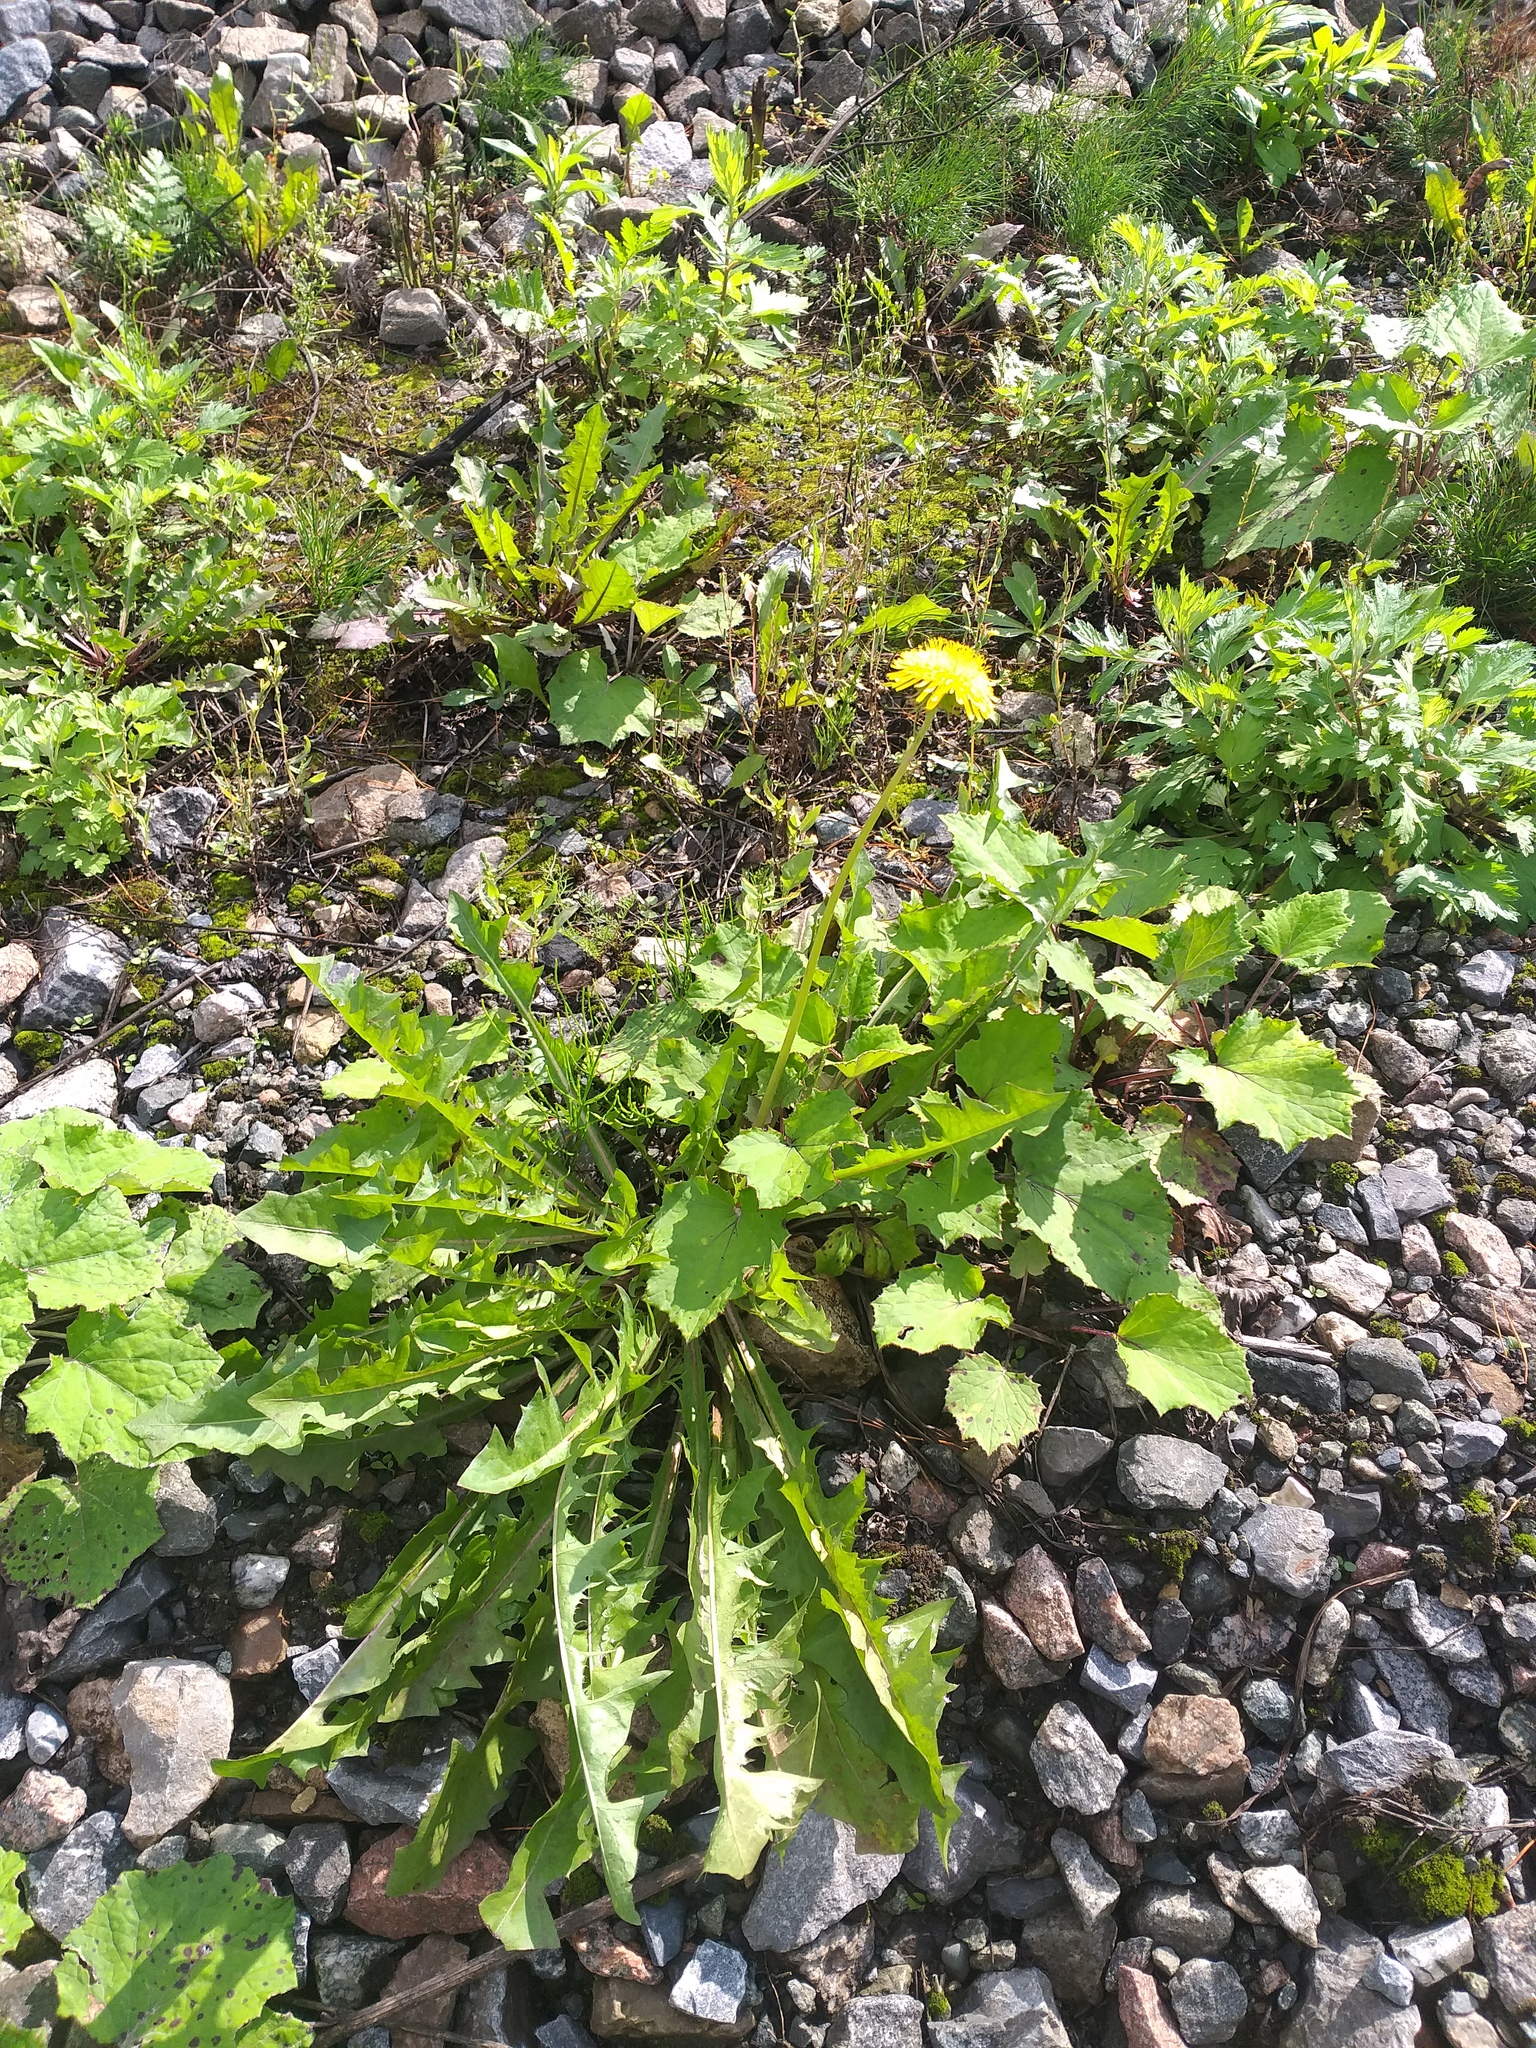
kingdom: Plantae
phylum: Tracheophyta
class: Magnoliopsida
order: Asterales
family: Asteraceae
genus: Taraxacum
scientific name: Taraxacum officinale
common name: Common dandelion
